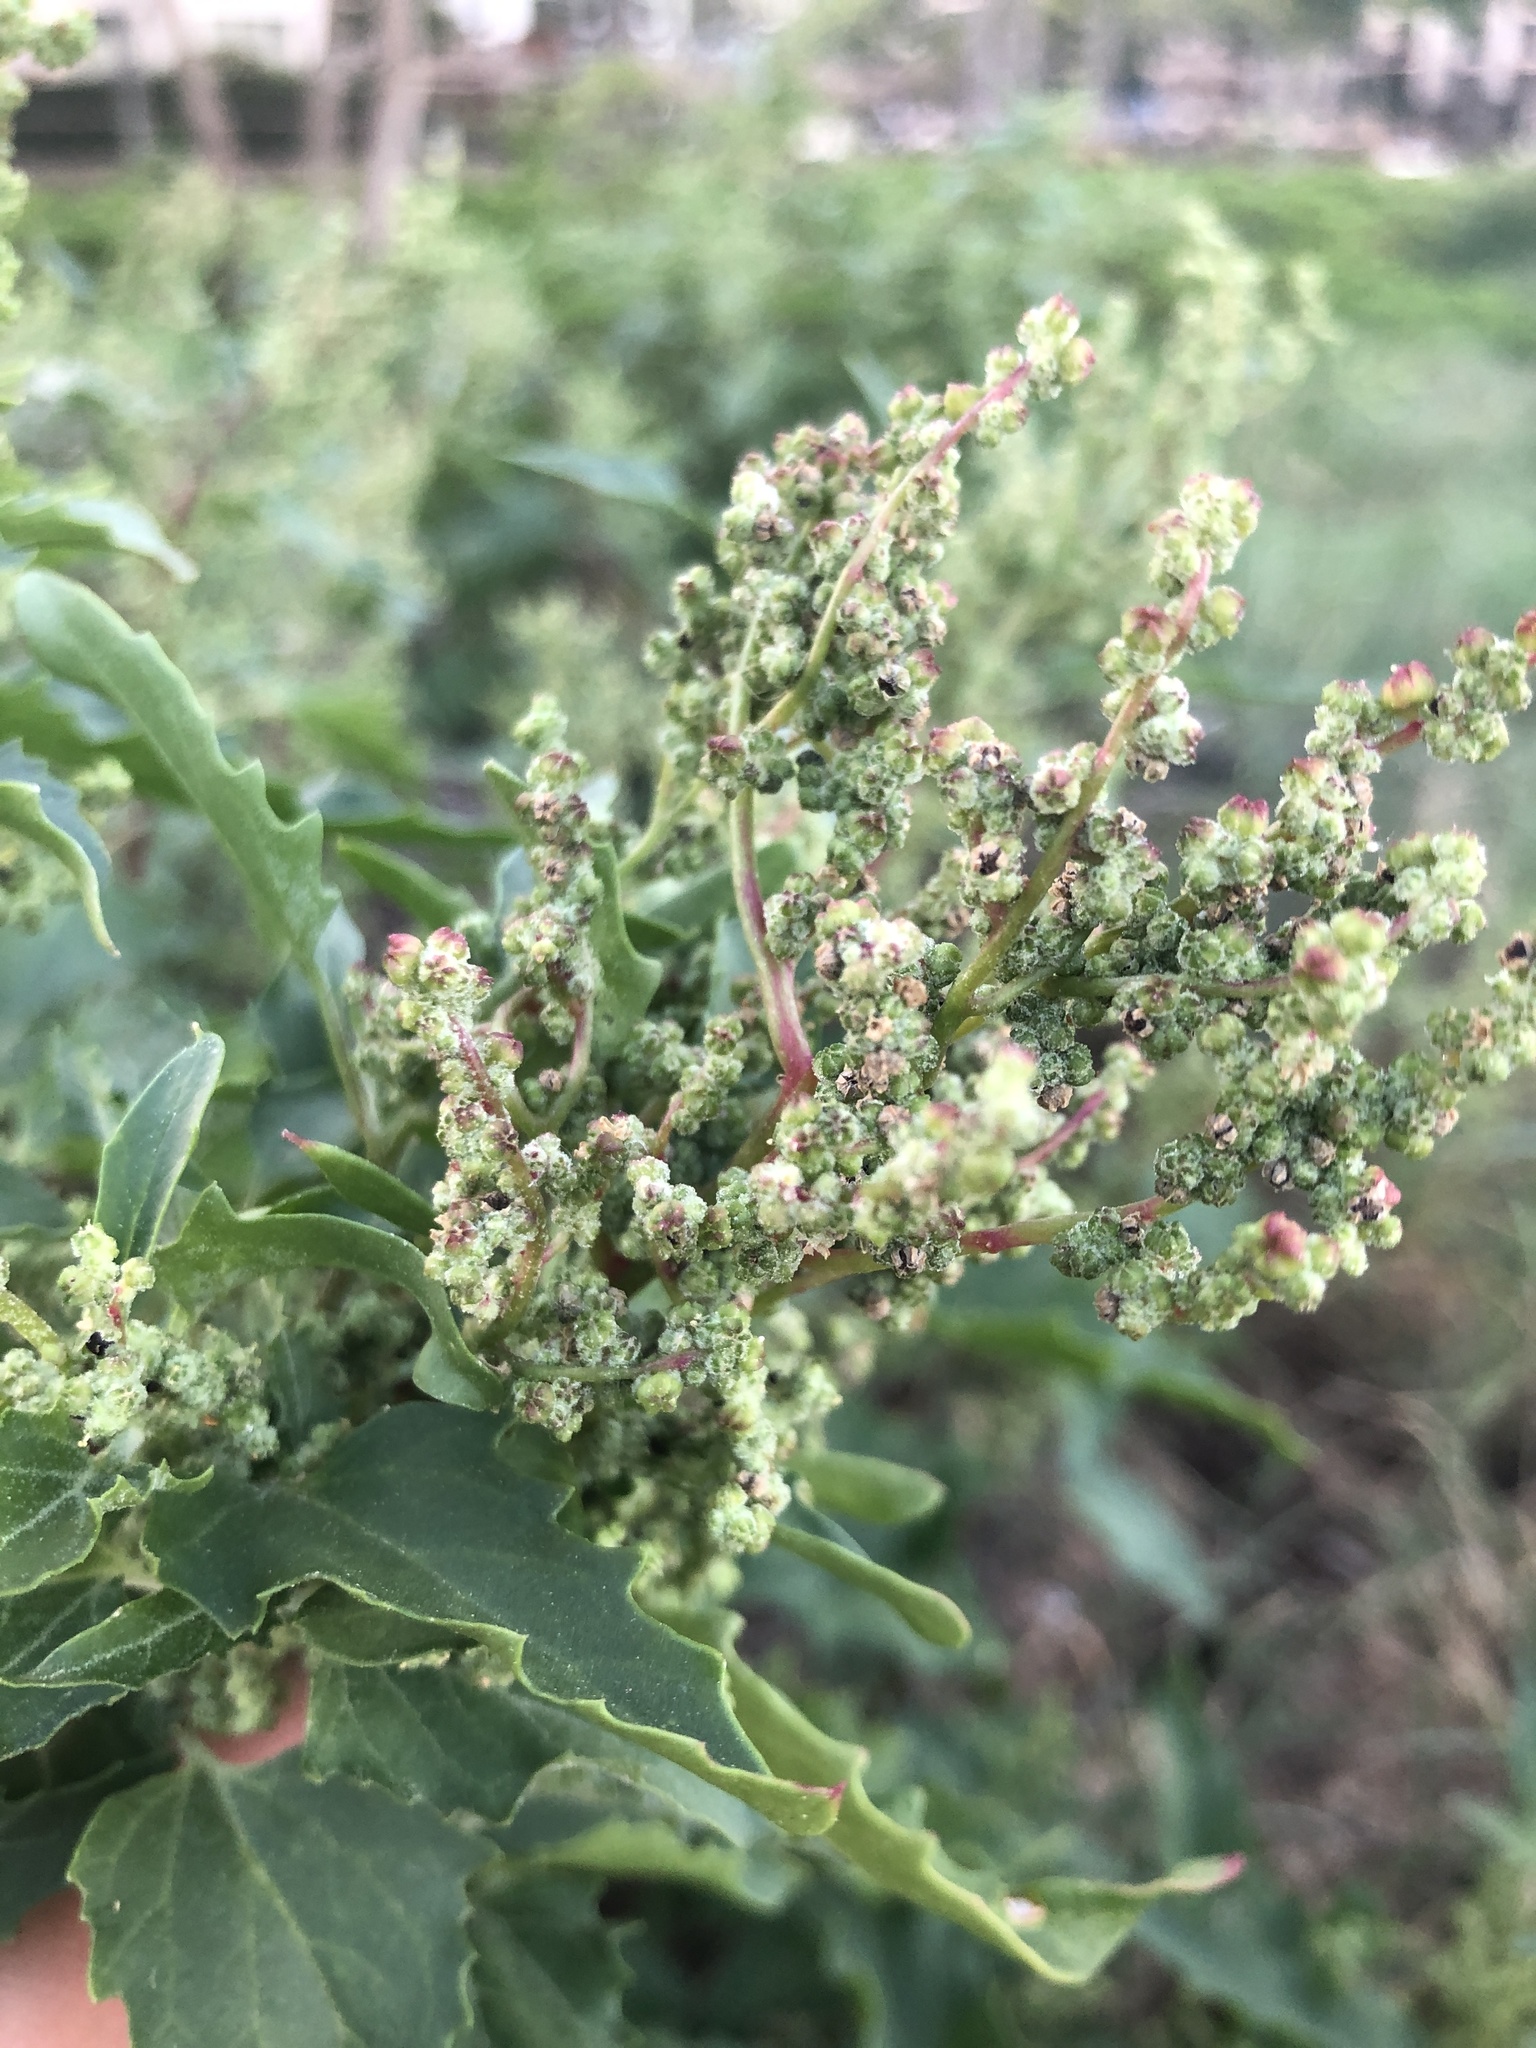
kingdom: Plantae
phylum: Tracheophyta
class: Magnoliopsida
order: Caryophyllales
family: Amaranthaceae
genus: Chenopodiastrum
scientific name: Chenopodiastrum murale
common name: Sowbane
